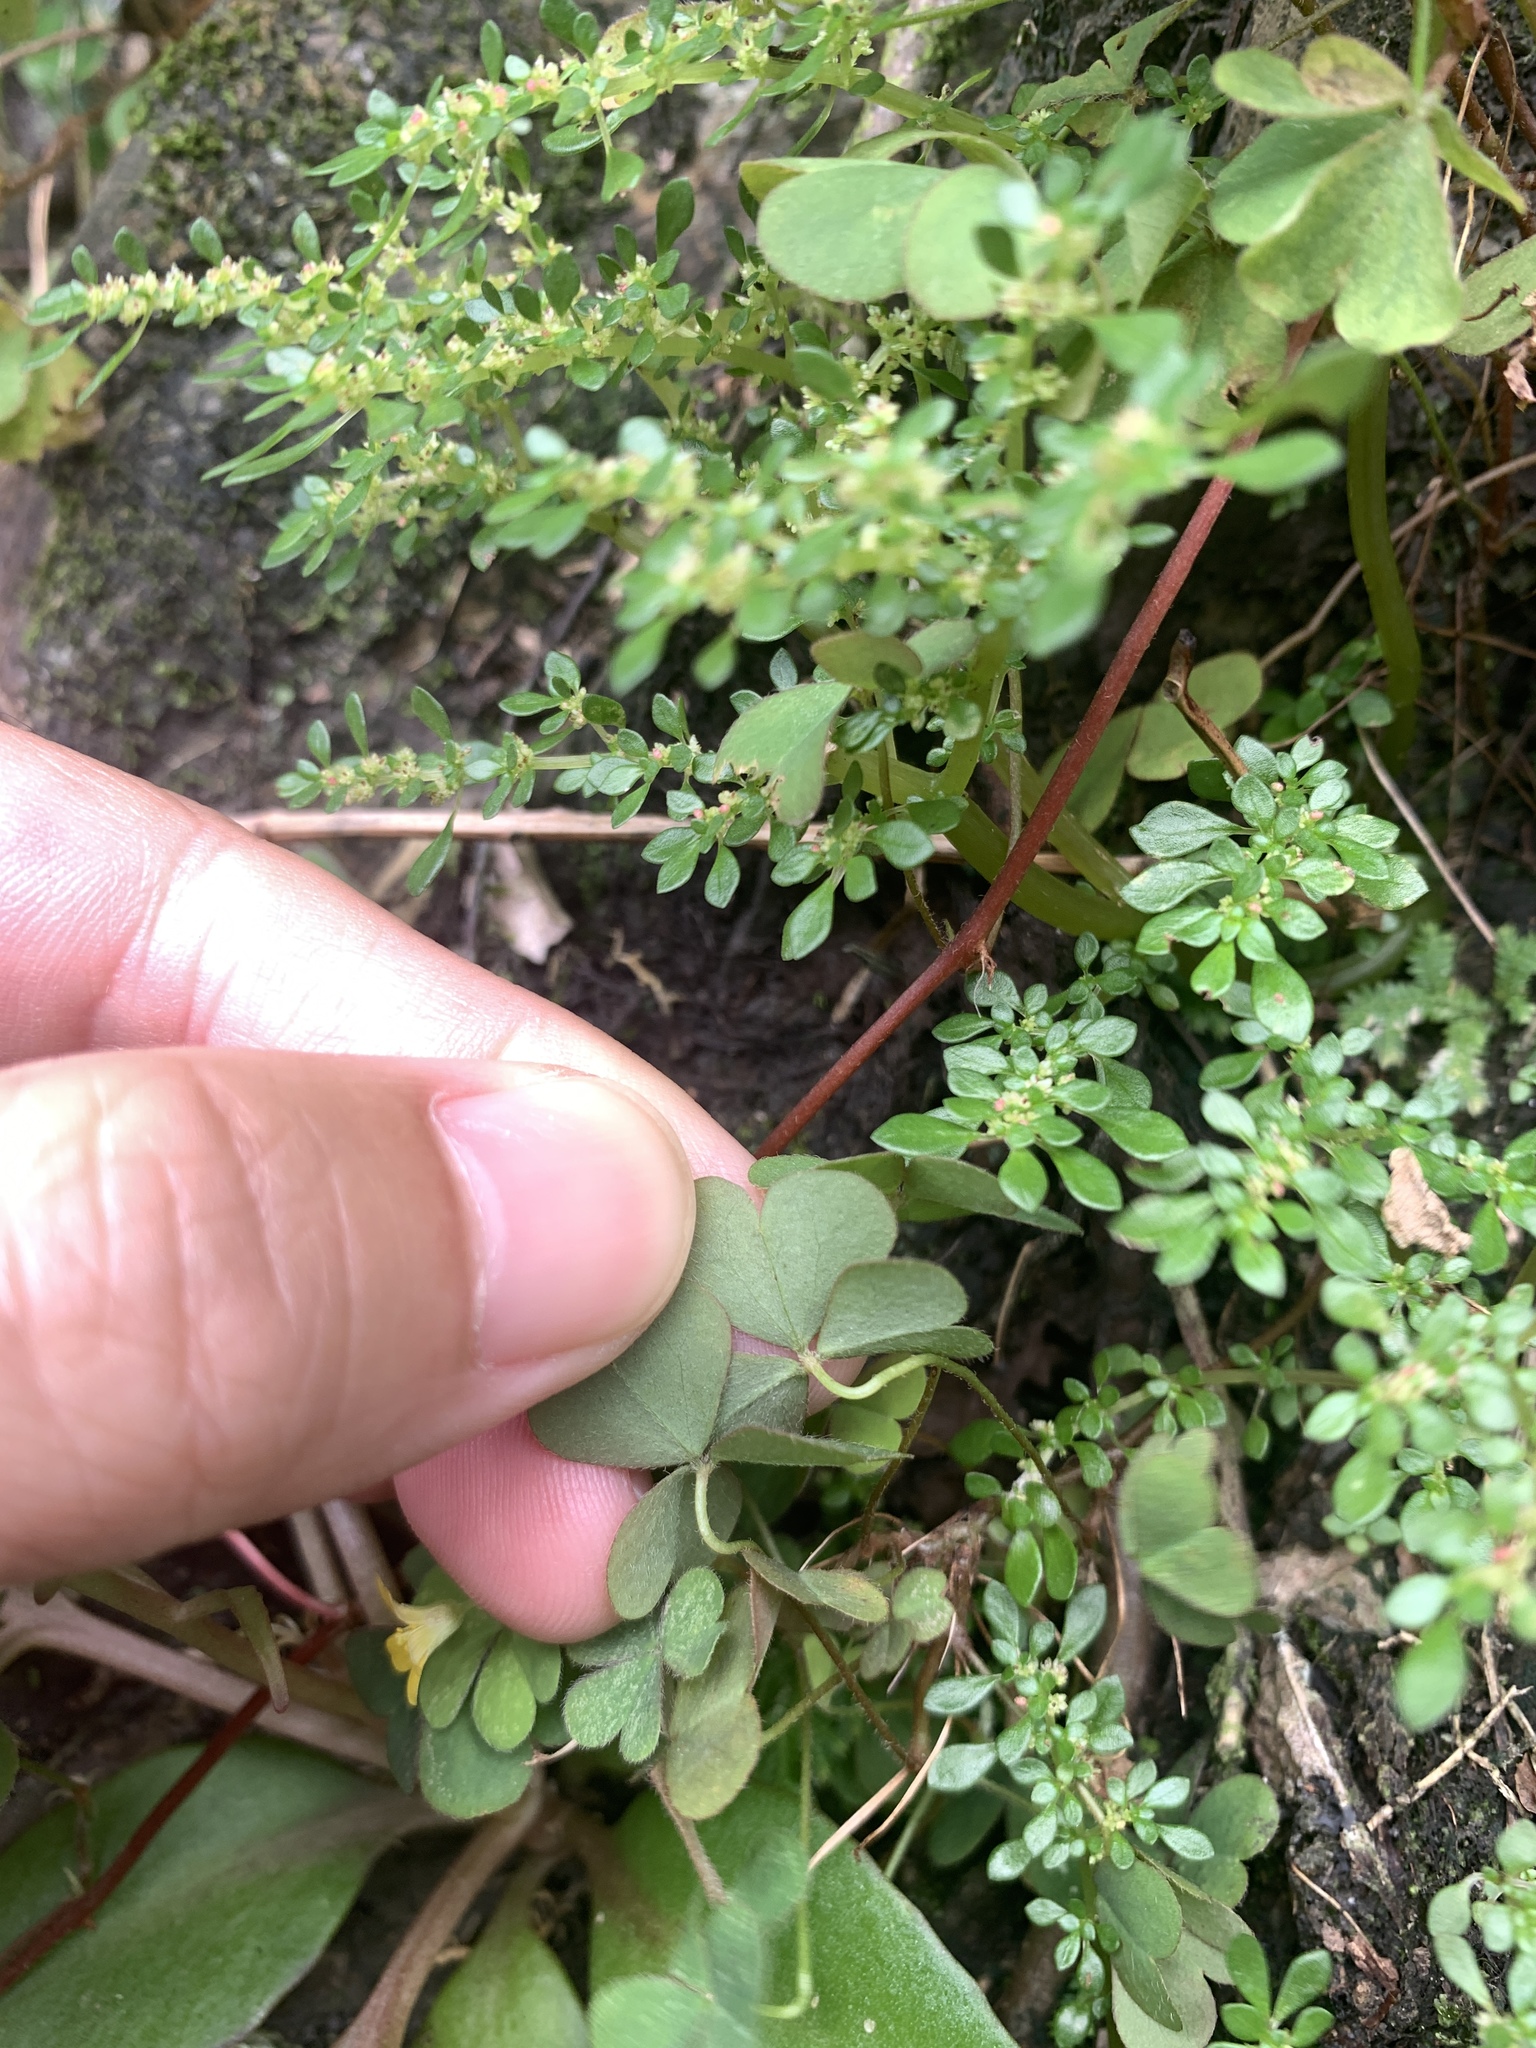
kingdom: Plantae
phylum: Tracheophyta
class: Magnoliopsida
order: Oxalidales
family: Oxalidaceae
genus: Oxalis
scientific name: Oxalis corniculata
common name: Procumbent yellow-sorrel
